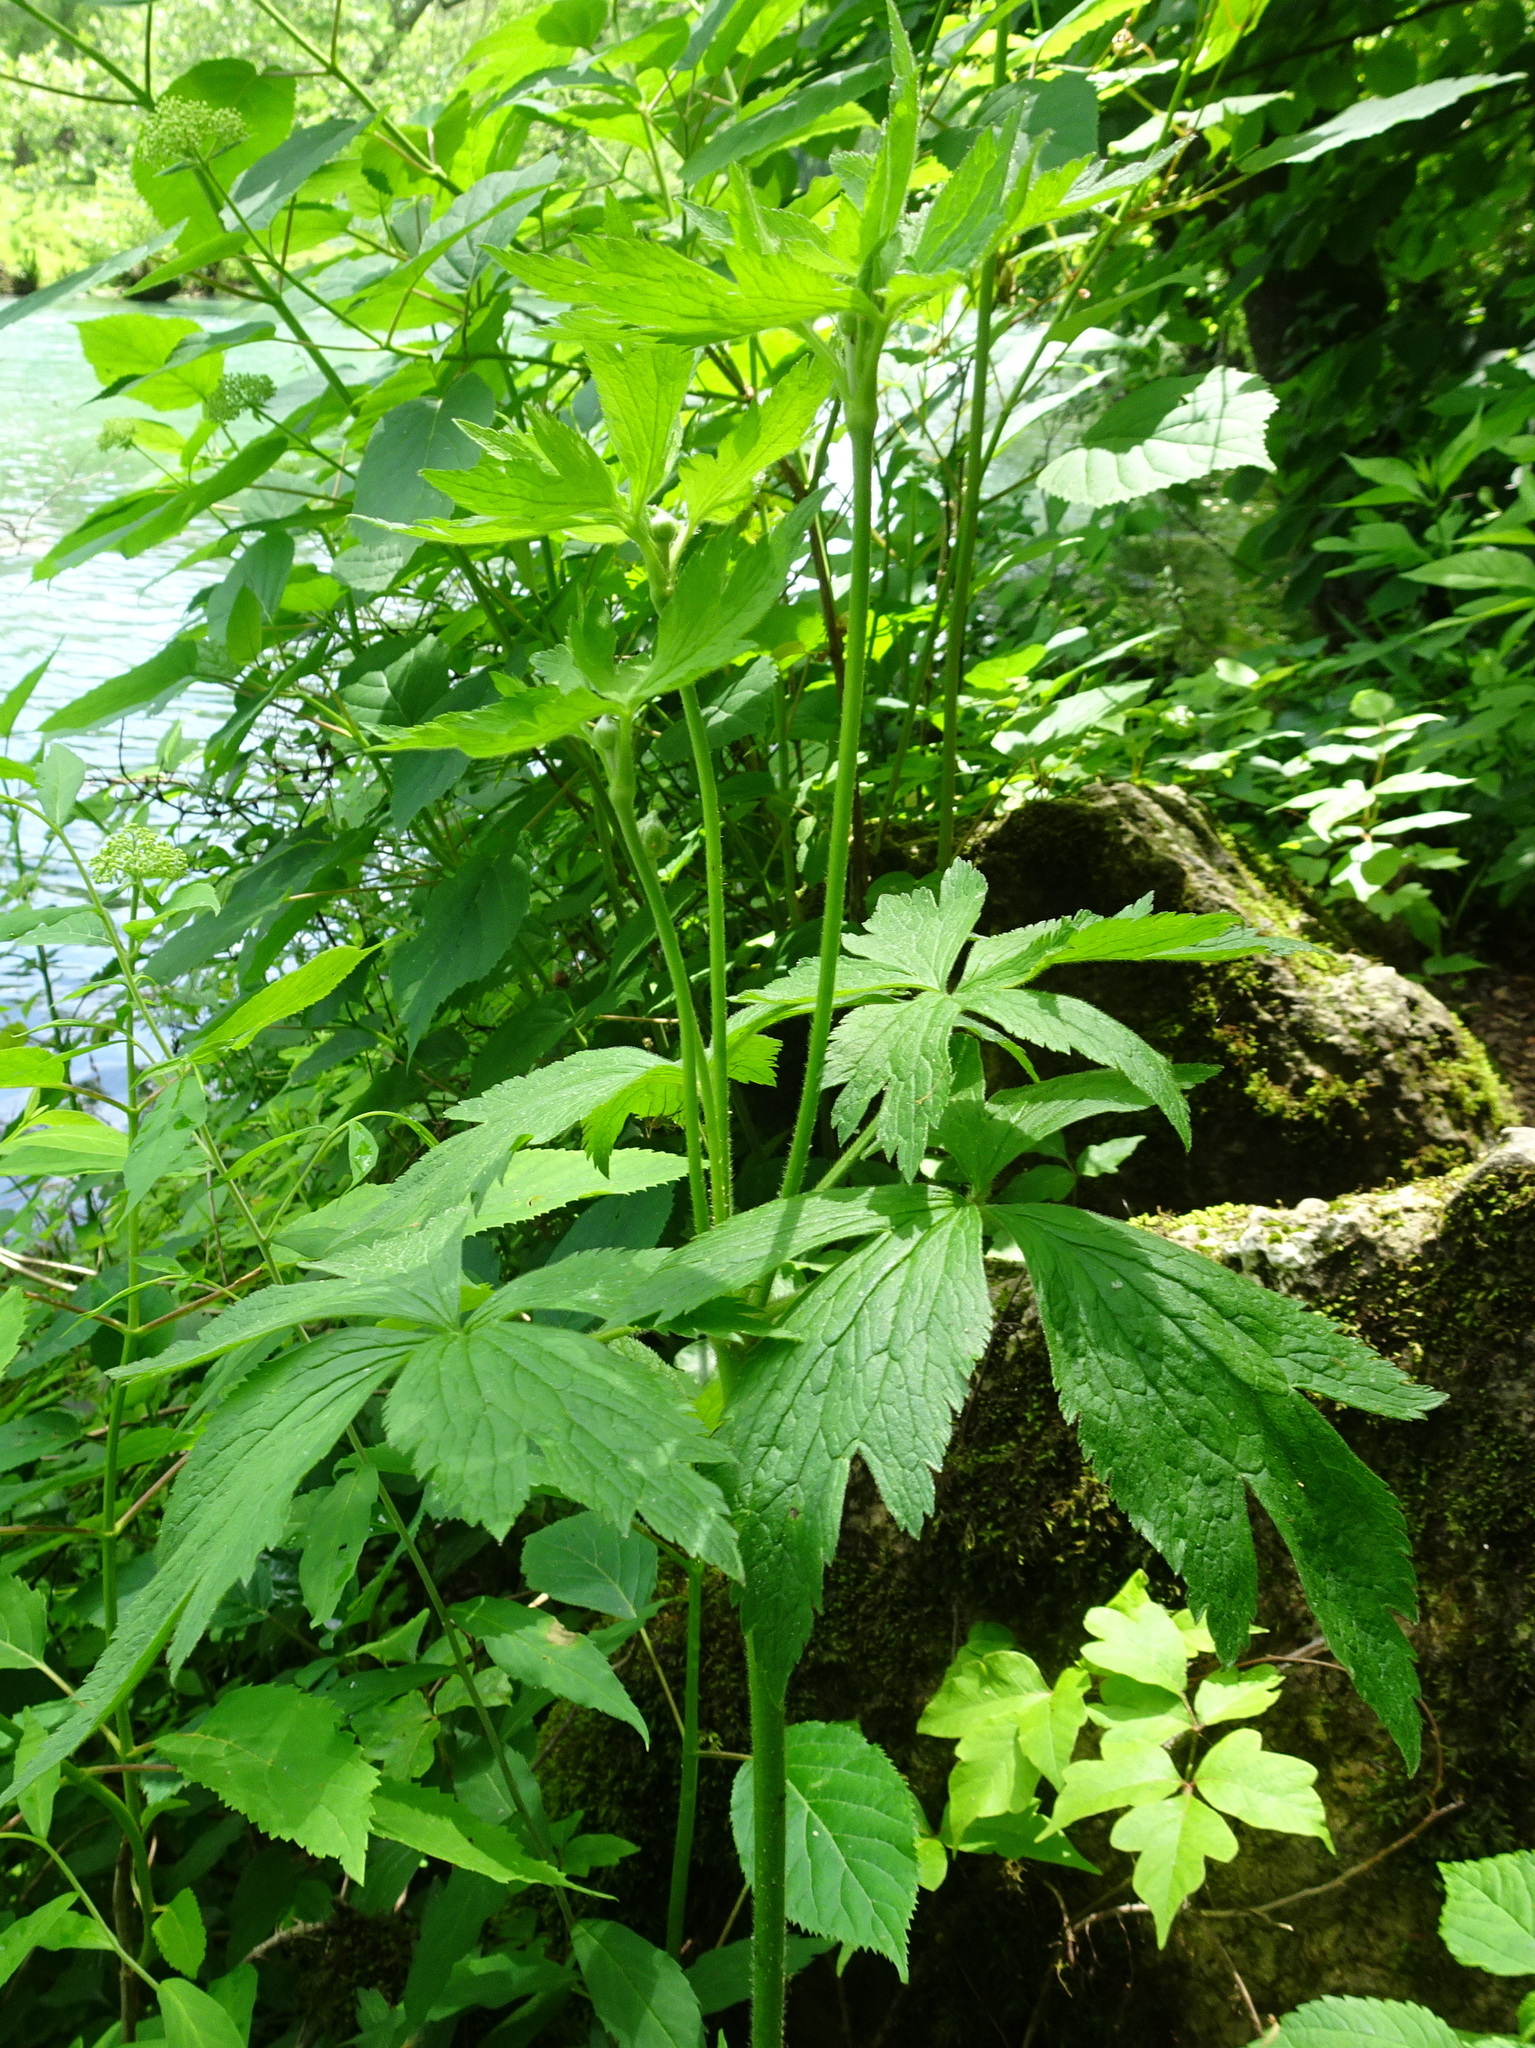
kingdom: Plantae
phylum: Tracheophyta
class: Magnoliopsida
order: Ranunculales
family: Ranunculaceae
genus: Anemone
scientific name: Anemone virginiana
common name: Tall anemone
